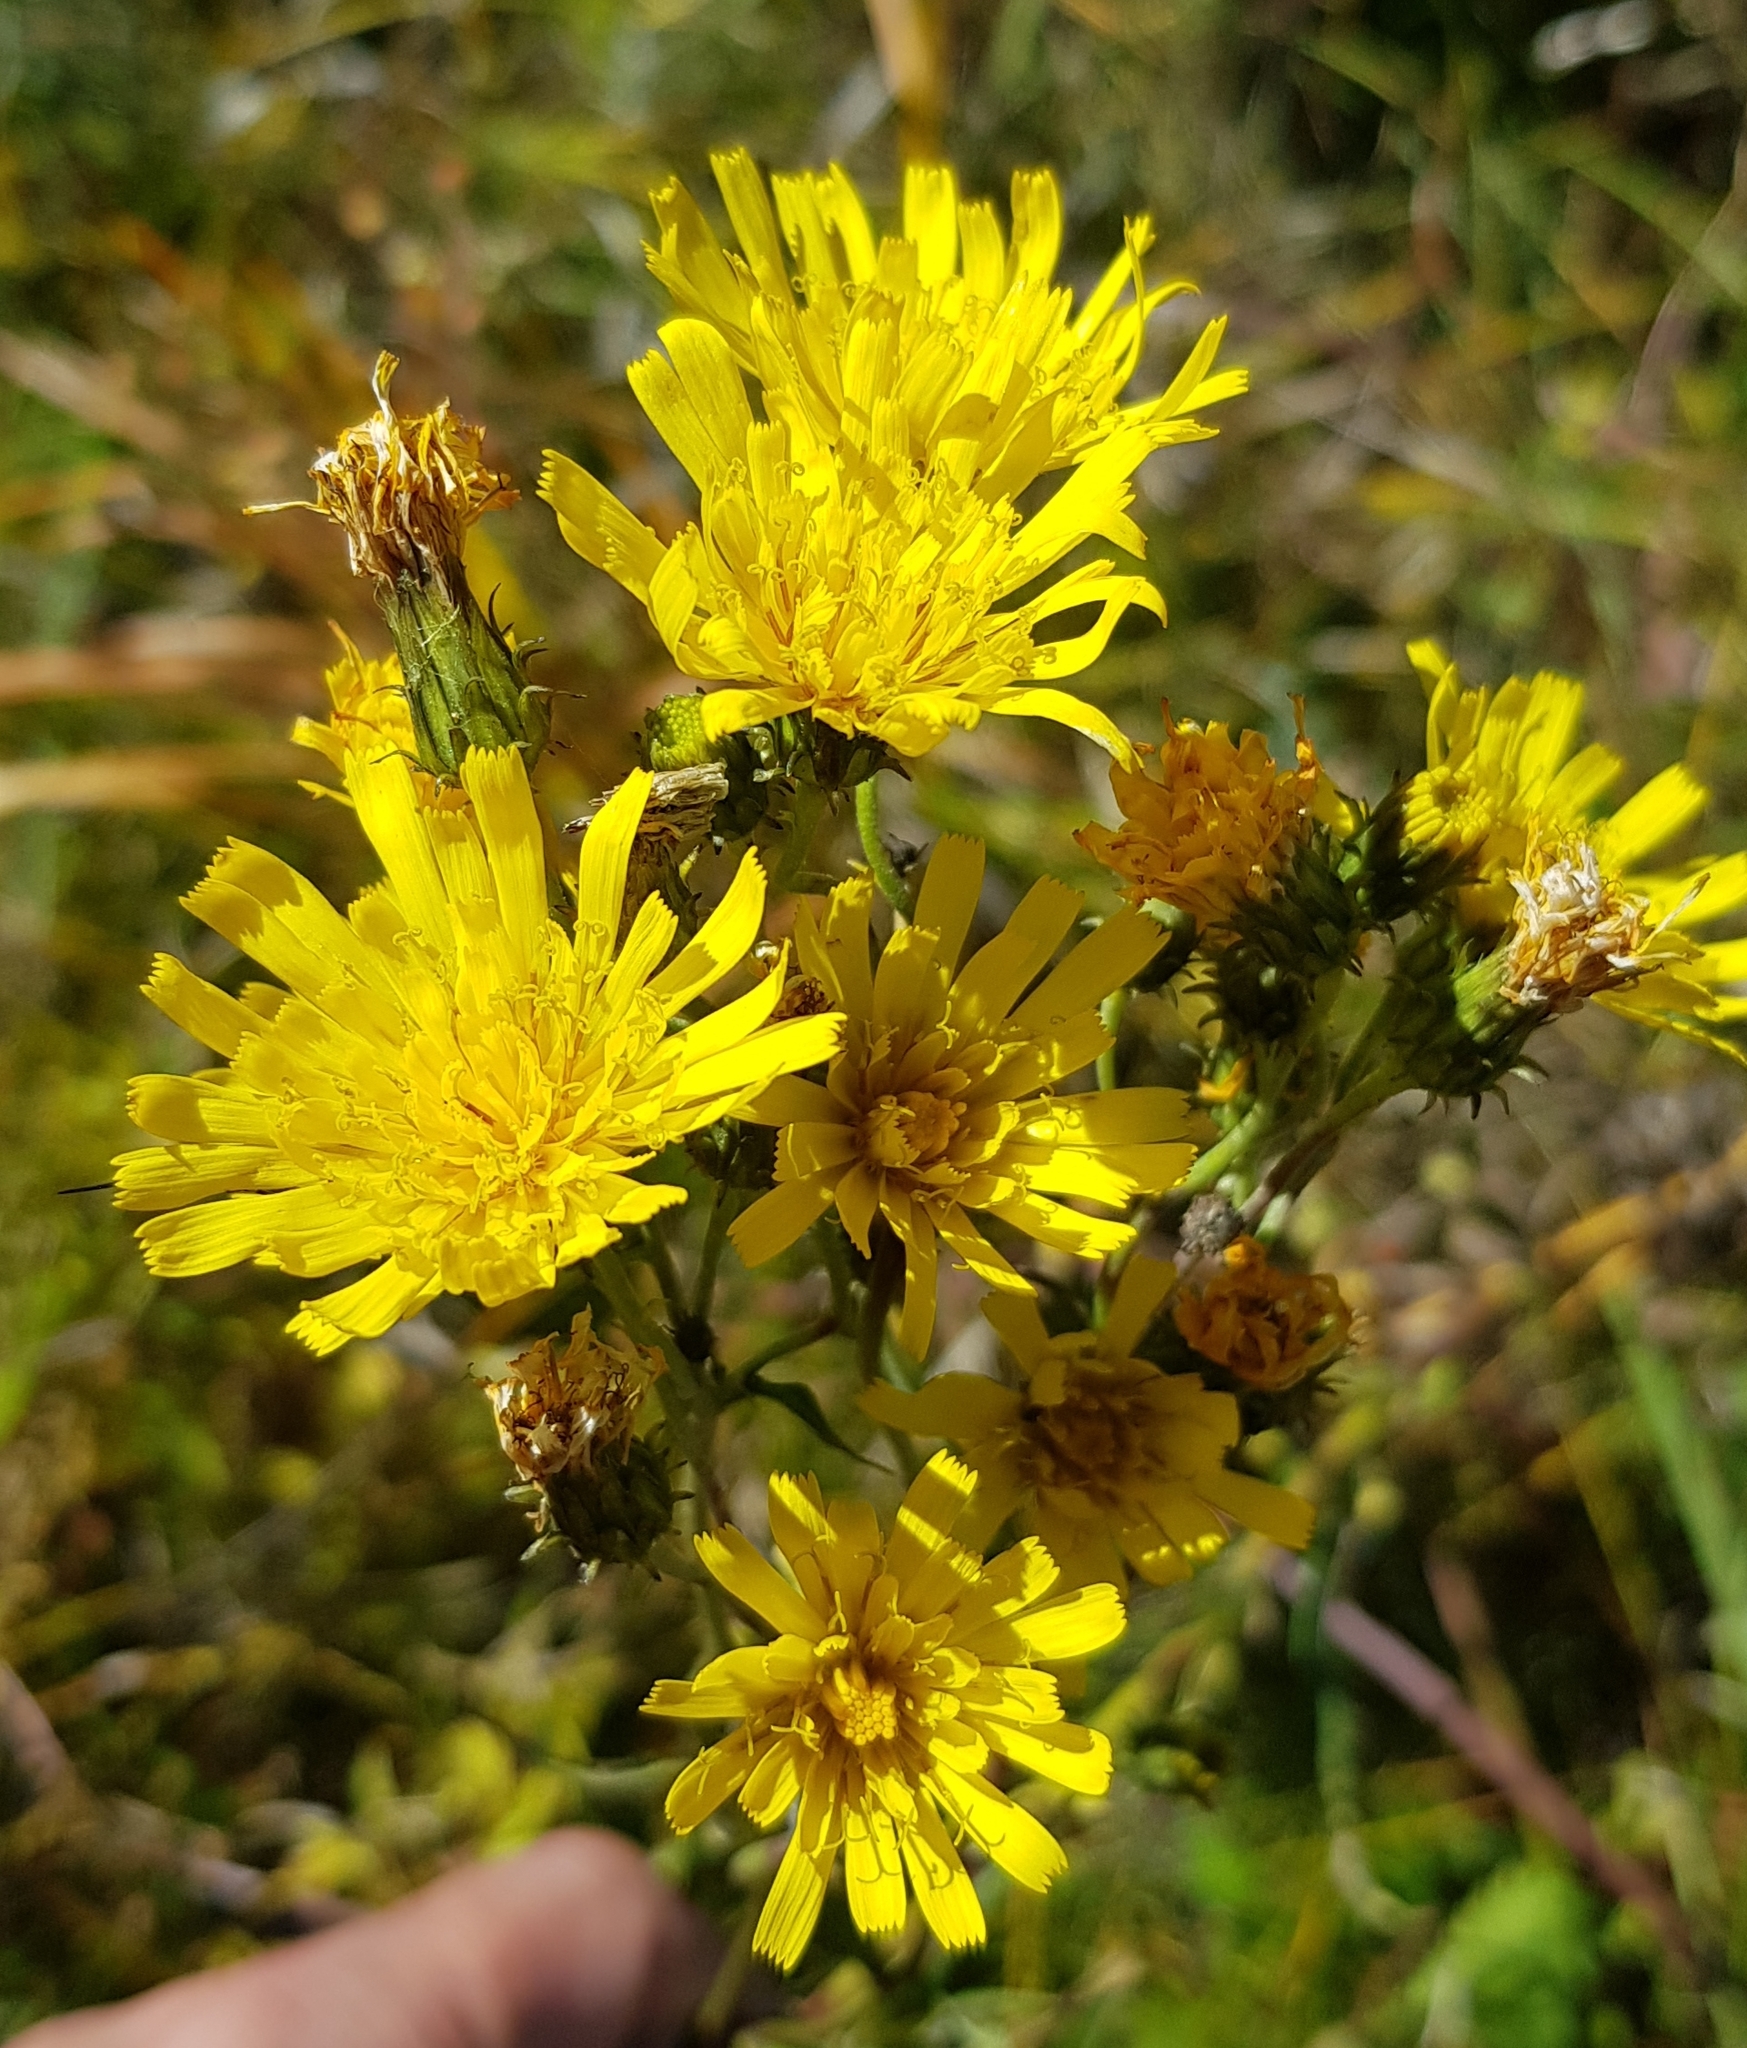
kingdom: Plantae
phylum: Tracheophyta
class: Magnoliopsida
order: Asterales
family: Asteraceae
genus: Hieracium
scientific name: Hieracium umbellatum
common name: Northern hawkweed
